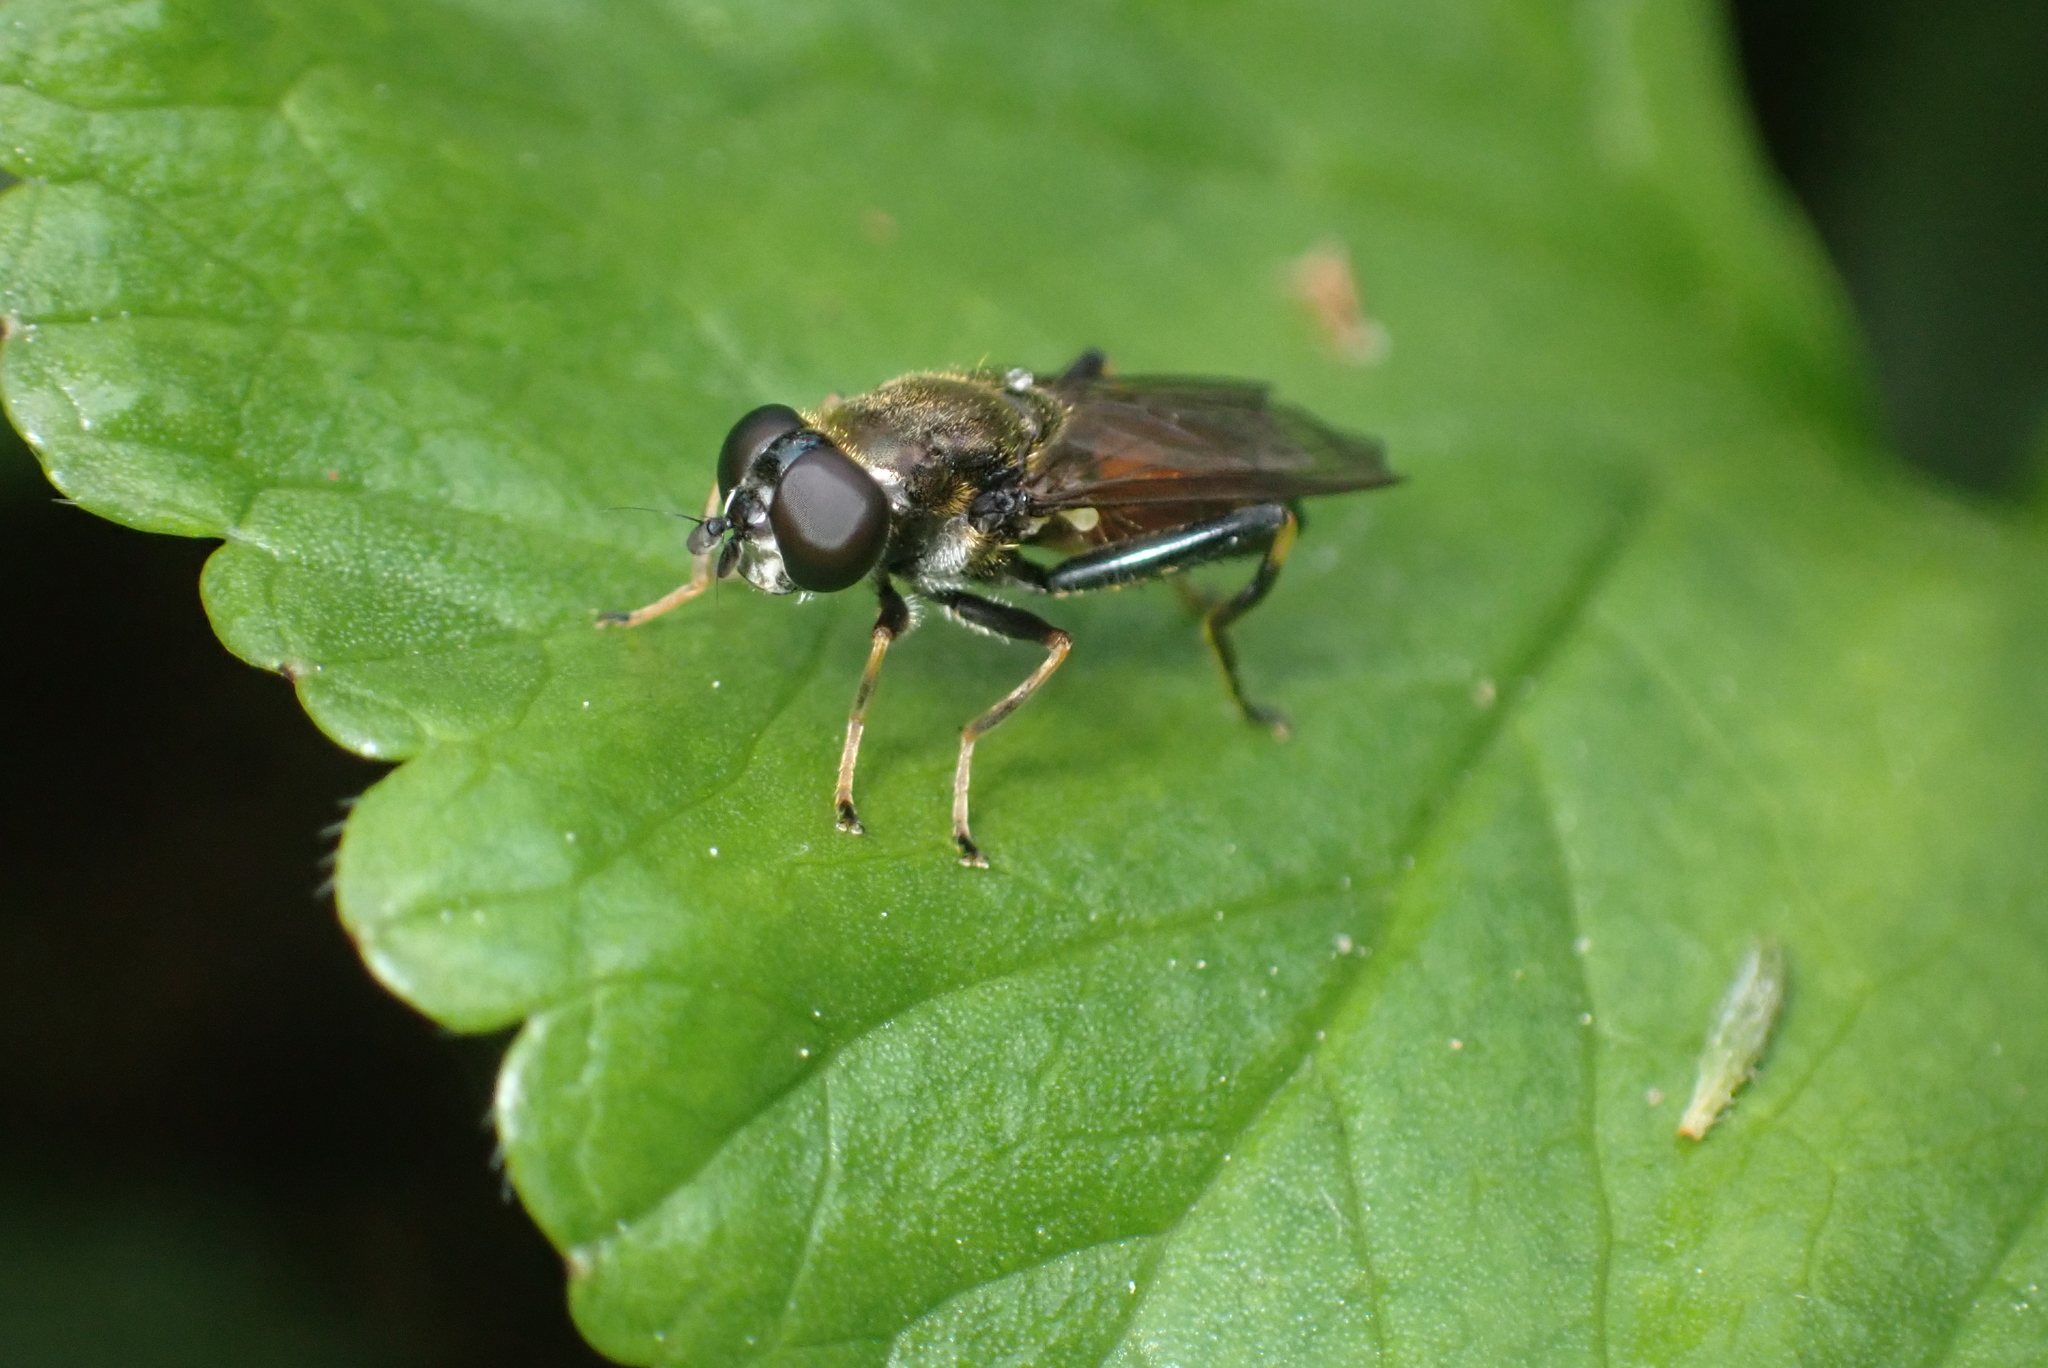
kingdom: Animalia
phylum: Arthropoda
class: Insecta
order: Diptera
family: Syrphidae
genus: Xylota
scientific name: Xylota segnis
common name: Brown-toed forest fly
